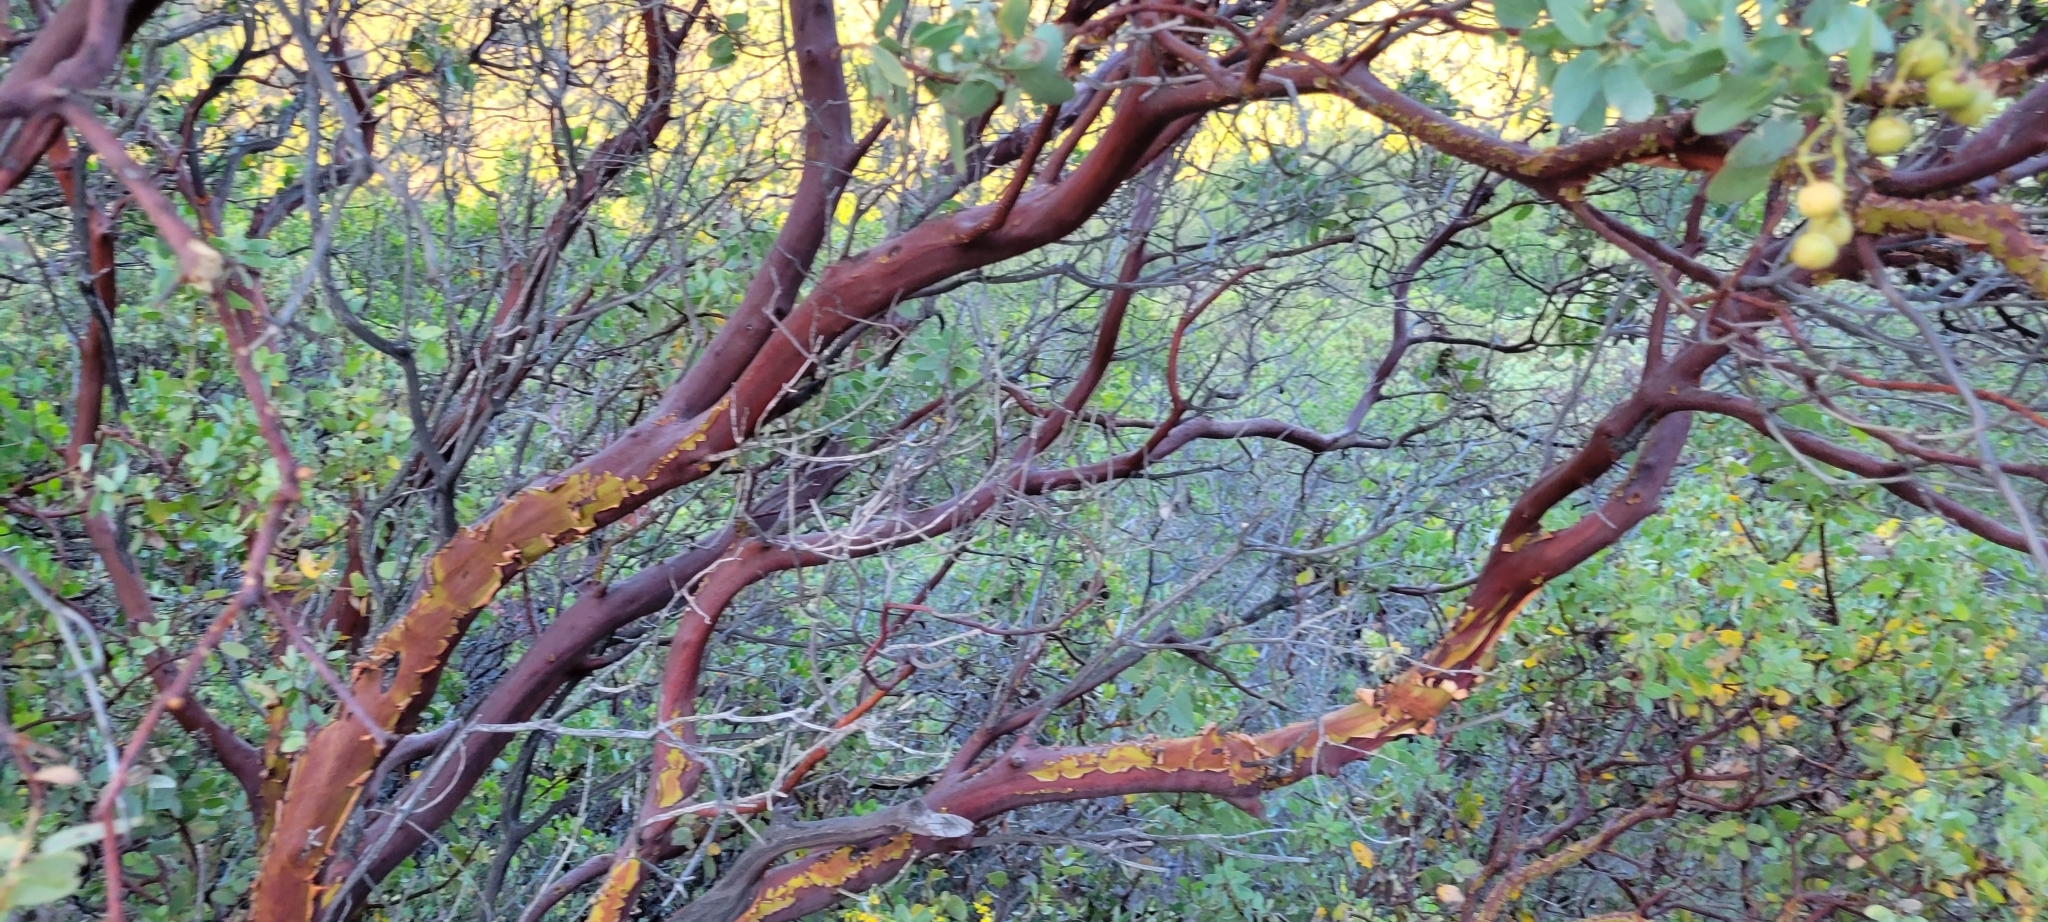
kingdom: Plantae
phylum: Tracheophyta
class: Magnoliopsida
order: Ericales
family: Ericaceae
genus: Arctostaphylos
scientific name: Arctostaphylos glauca
